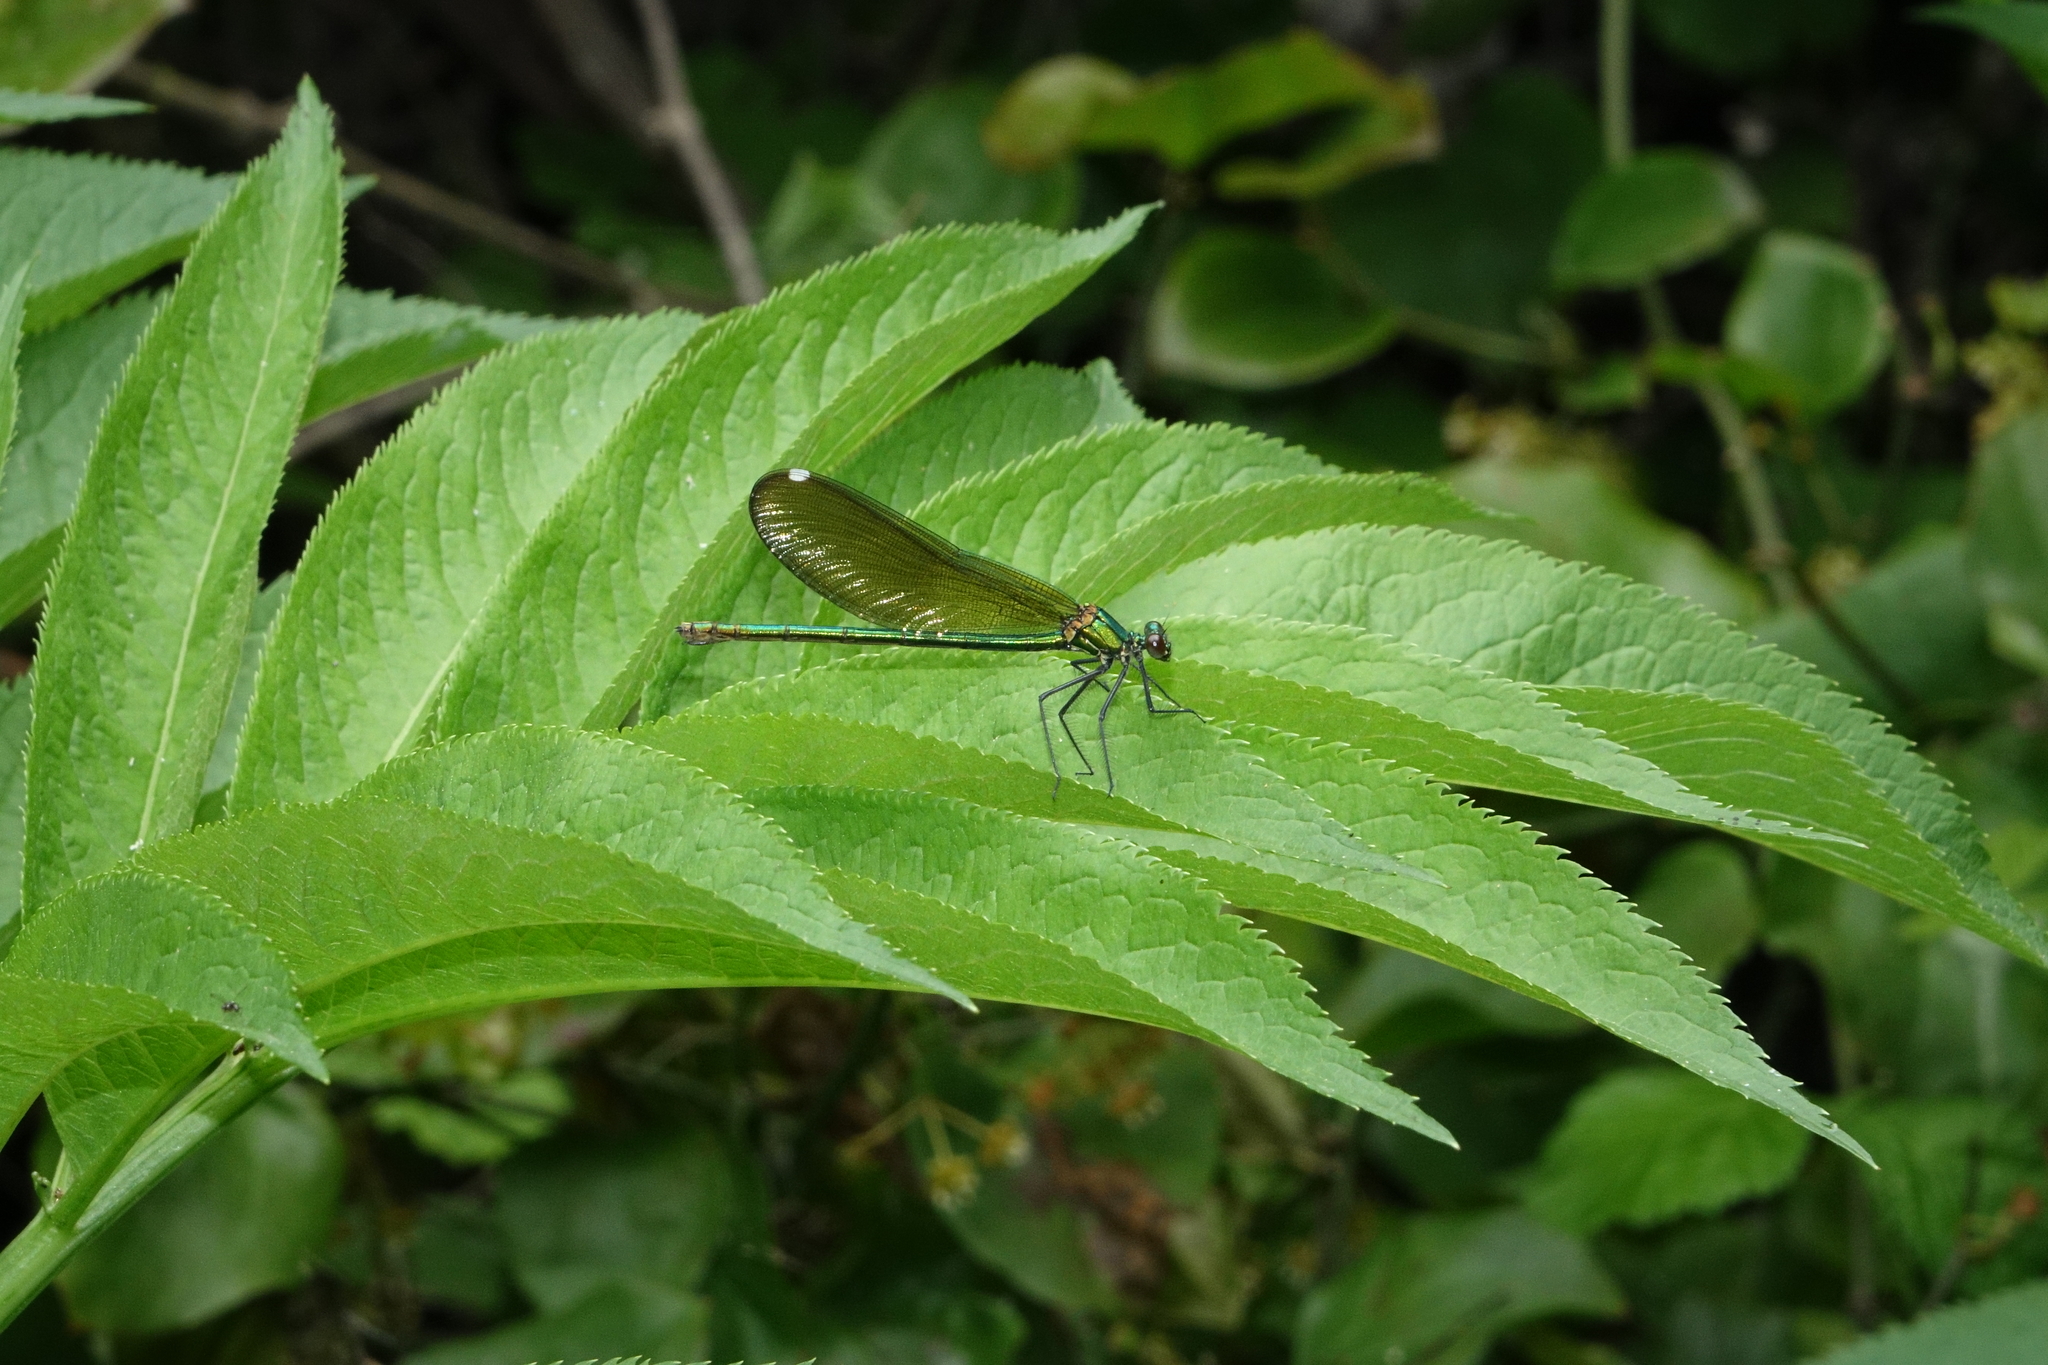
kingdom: Plantae
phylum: Tracheophyta
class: Magnoliopsida
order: Dipsacales
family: Viburnaceae
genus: Sambucus
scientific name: Sambucus ebulus
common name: Dwarf elder
